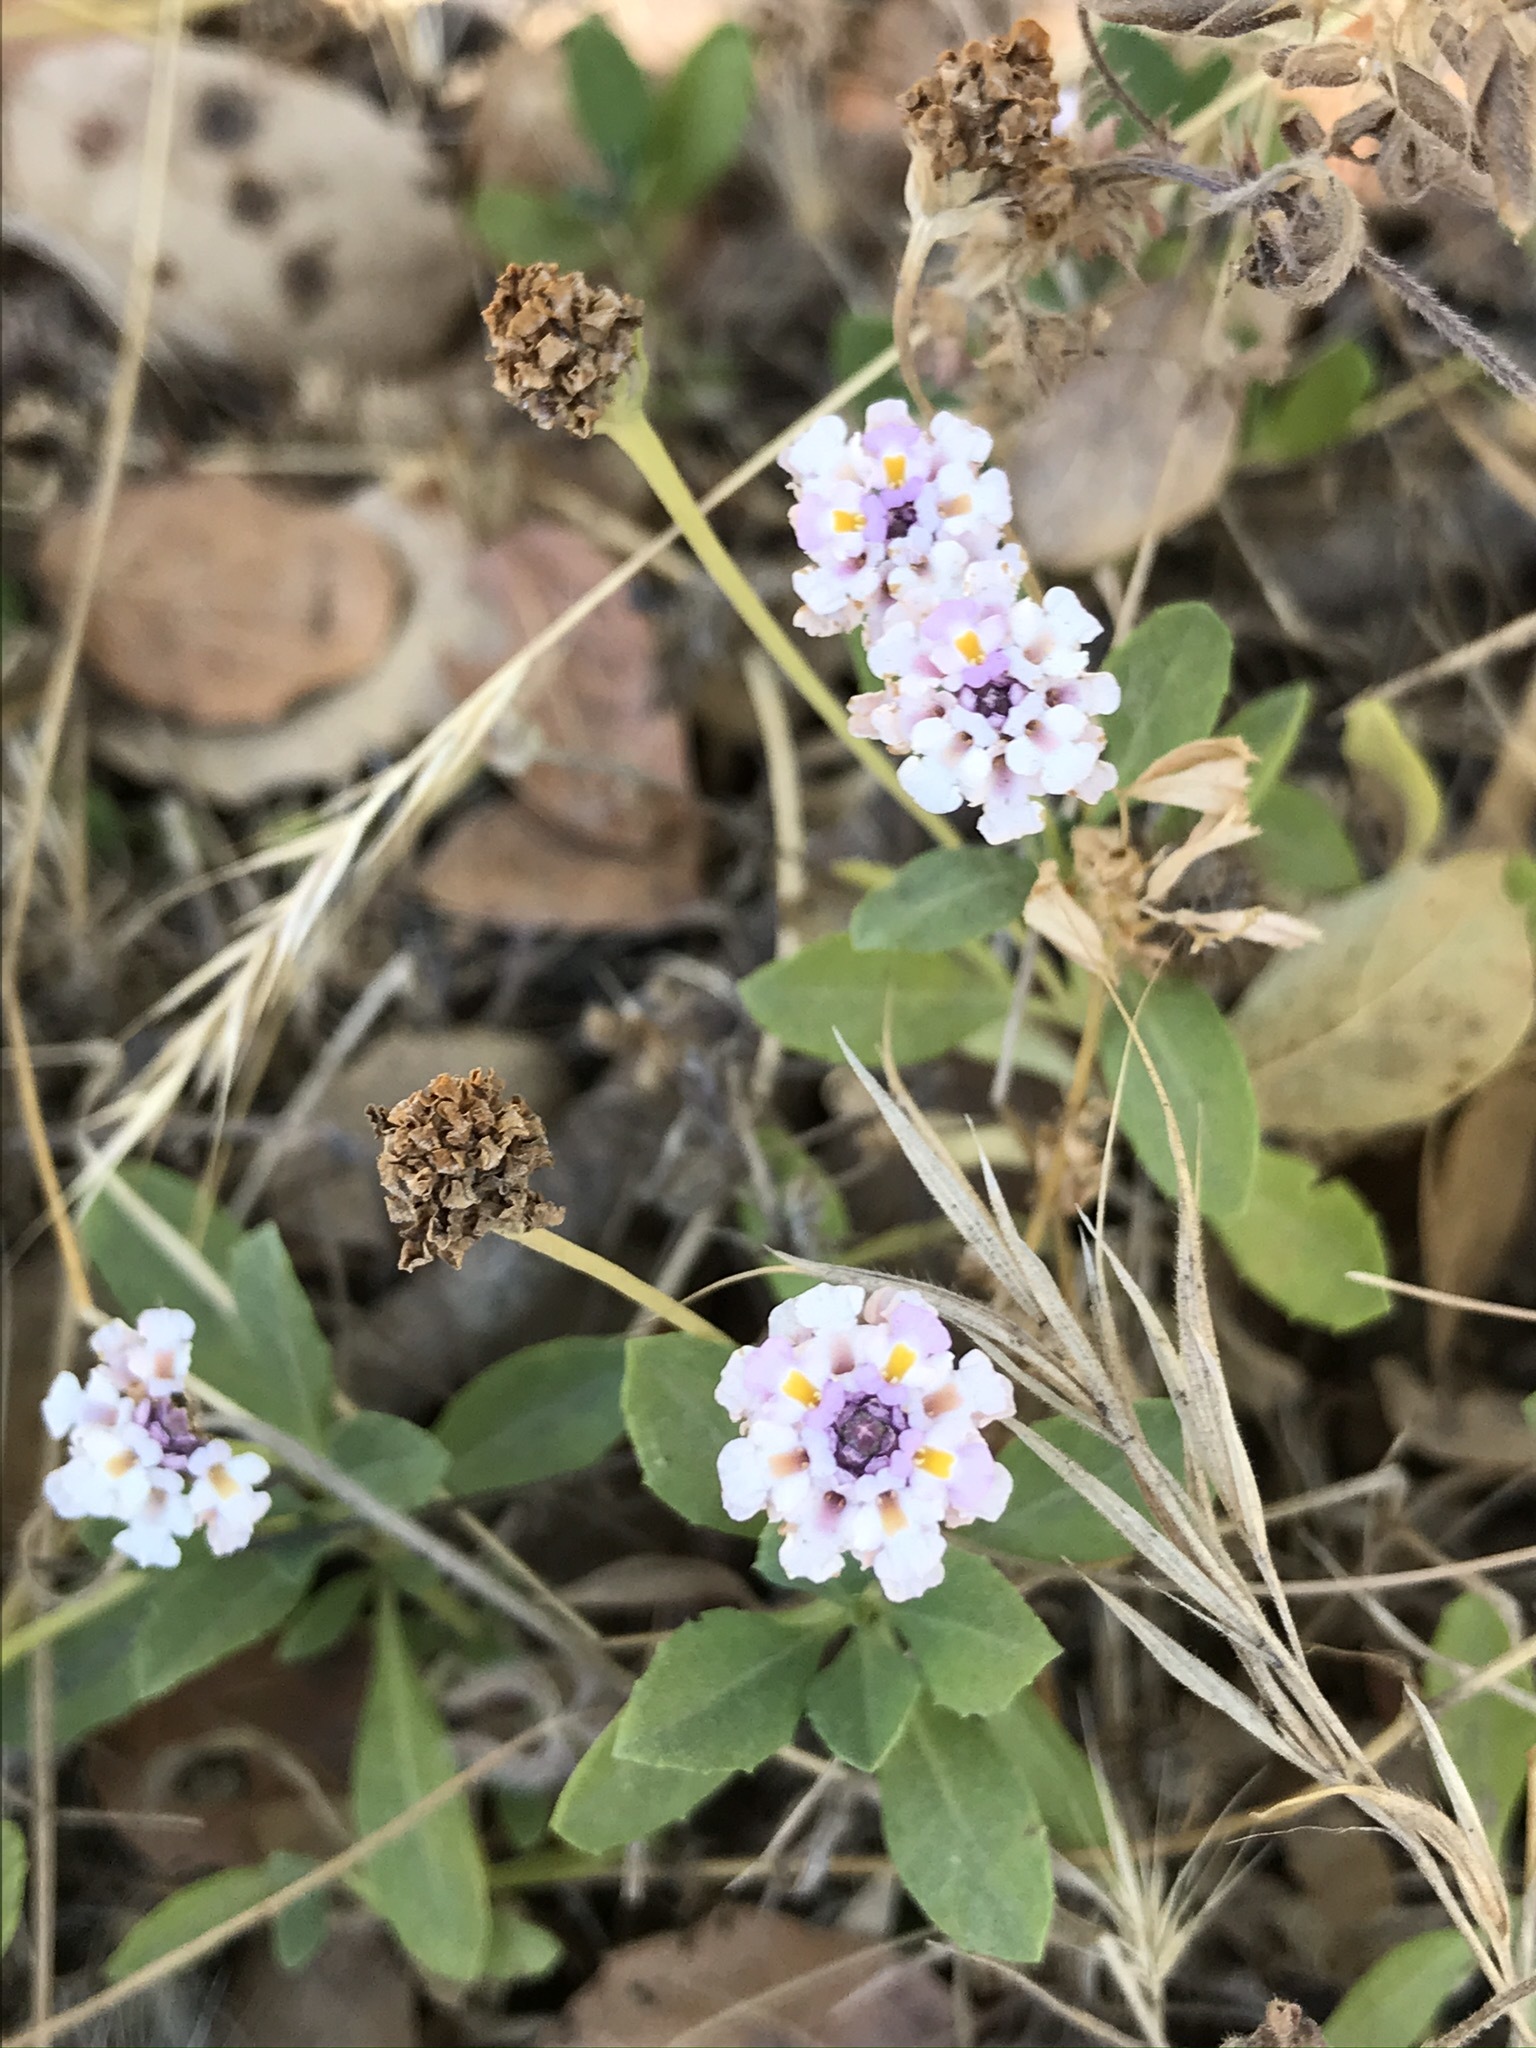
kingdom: Plantae
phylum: Tracheophyta
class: Magnoliopsida
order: Lamiales
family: Verbenaceae
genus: Phyla
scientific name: Phyla nodiflora
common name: Frogfruit
